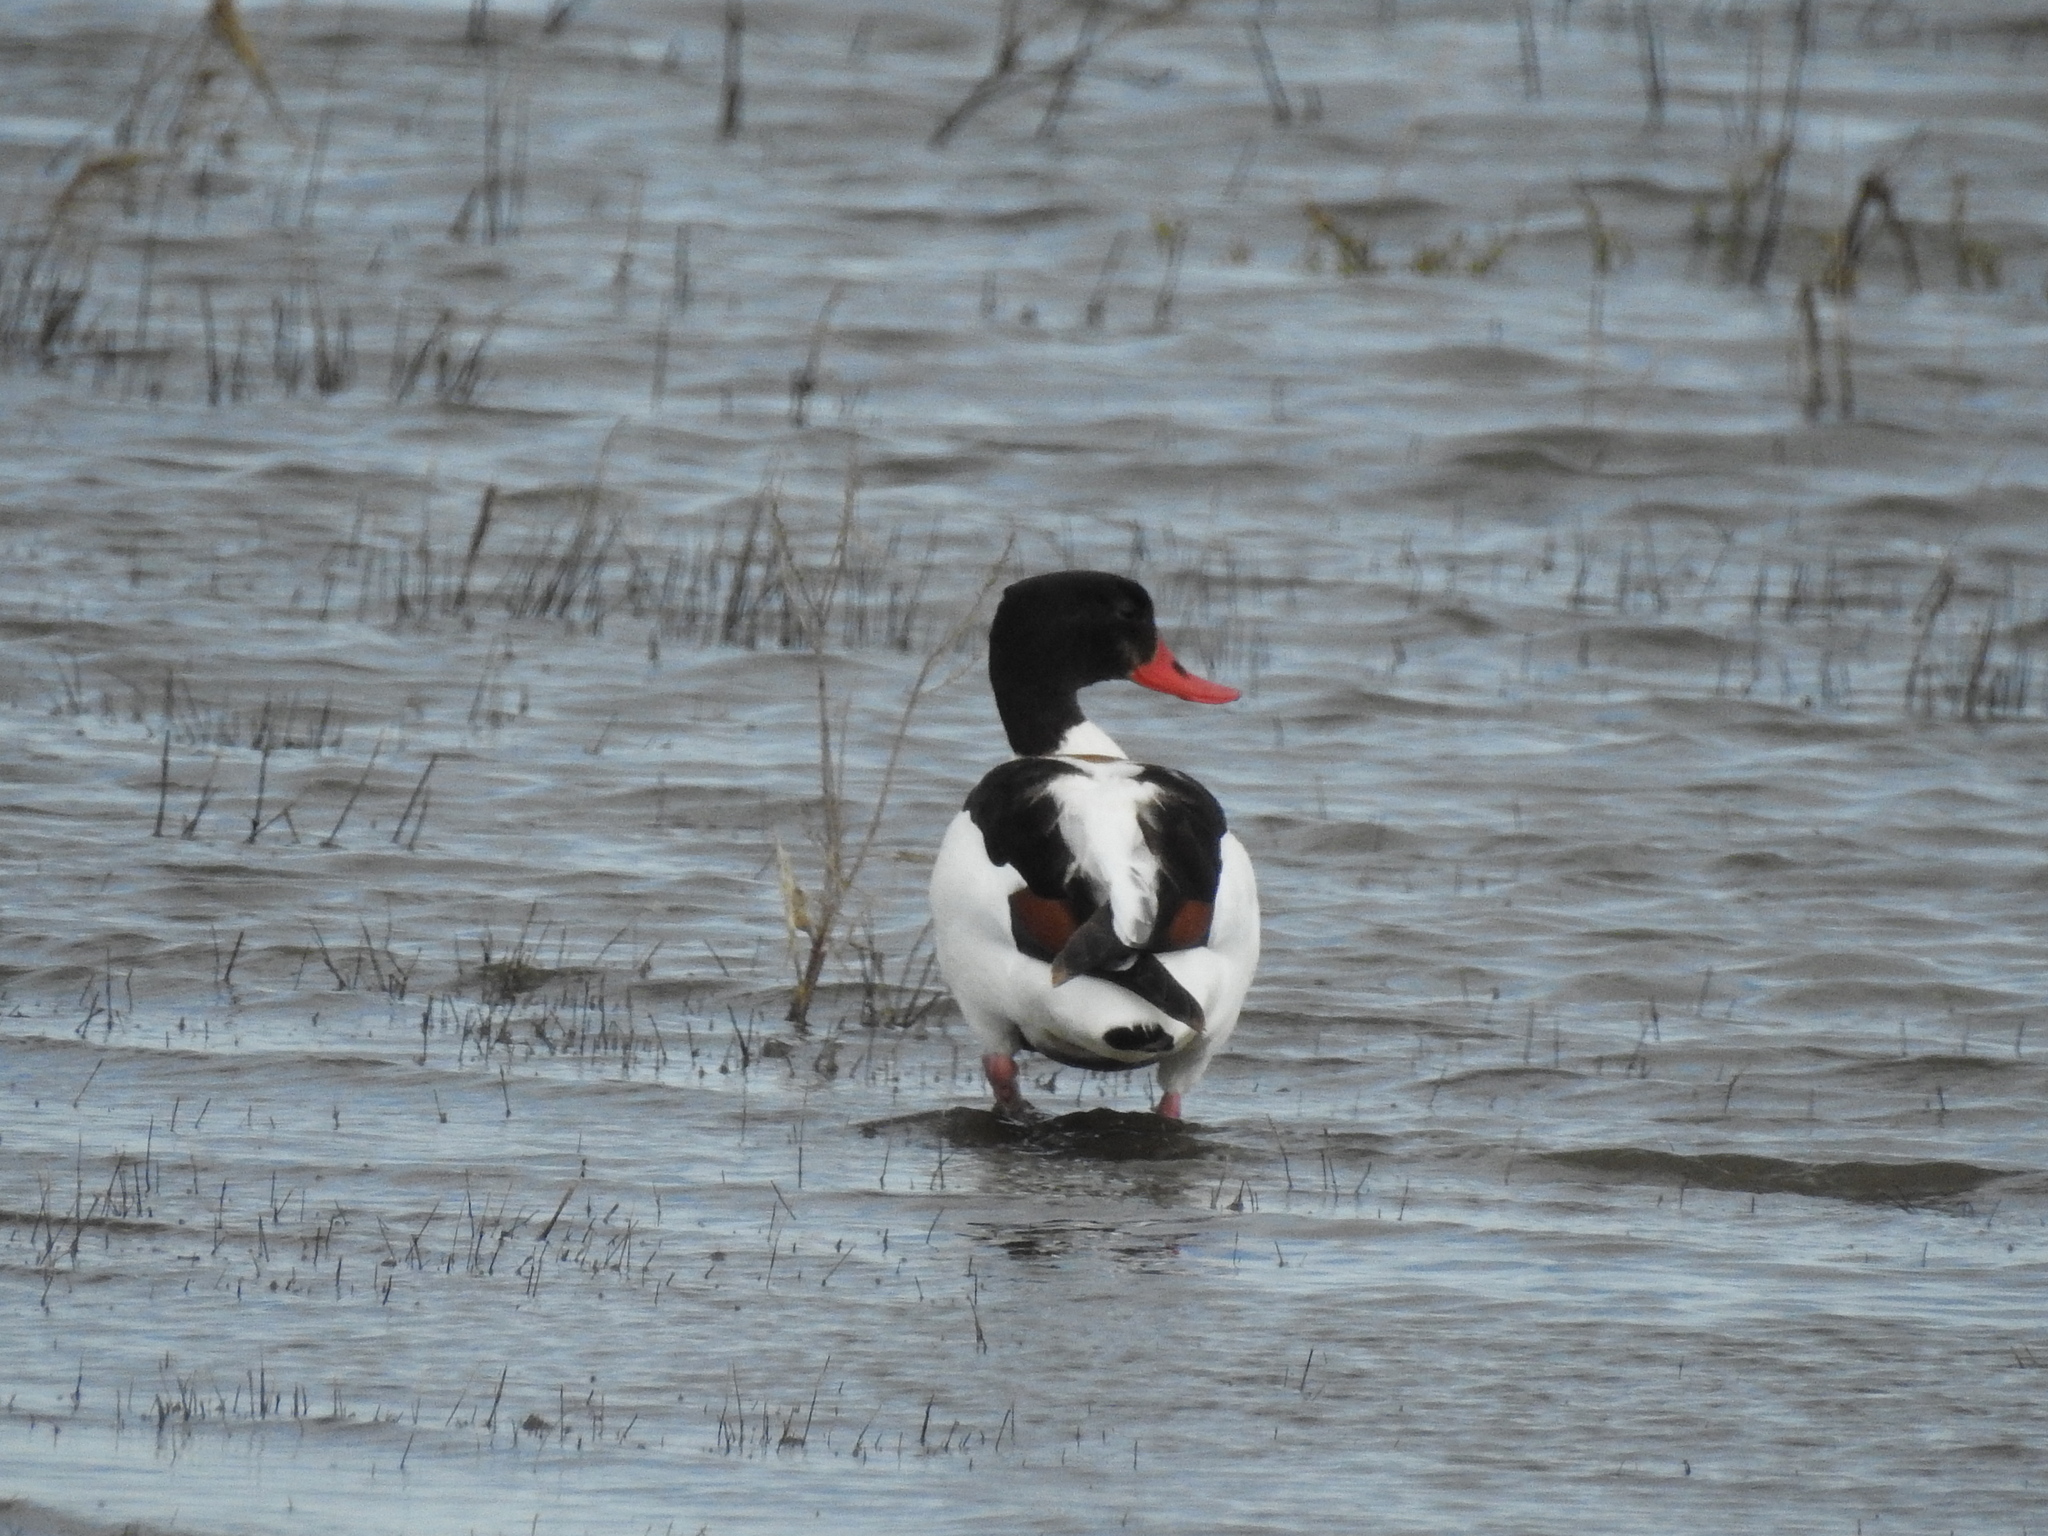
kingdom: Animalia
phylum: Chordata
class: Aves
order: Anseriformes
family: Anatidae
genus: Tadorna
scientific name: Tadorna tadorna
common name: Common shelduck
